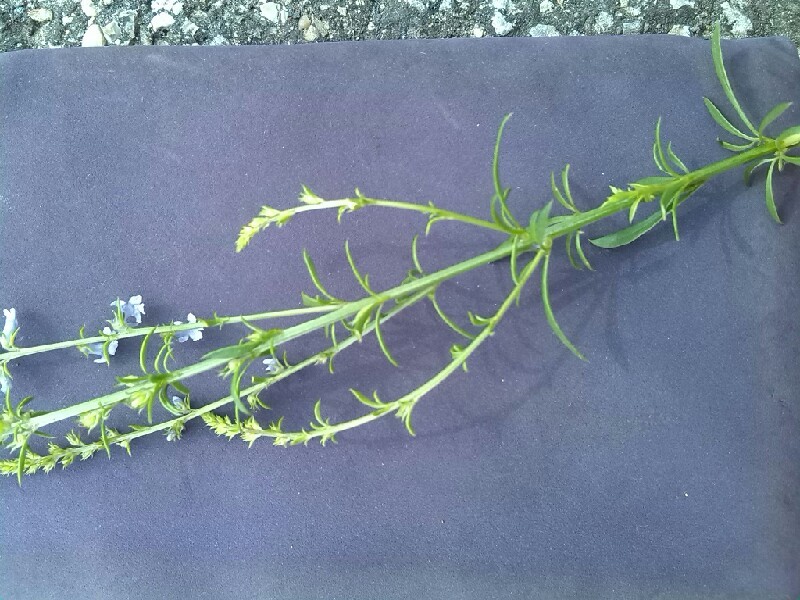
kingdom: Plantae
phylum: Tracheophyta
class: Magnoliopsida
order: Lamiales
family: Plantaginaceae
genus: Anarrhinum
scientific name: Anarrhinum bellidifolium
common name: Daisy-leaved toadflax
